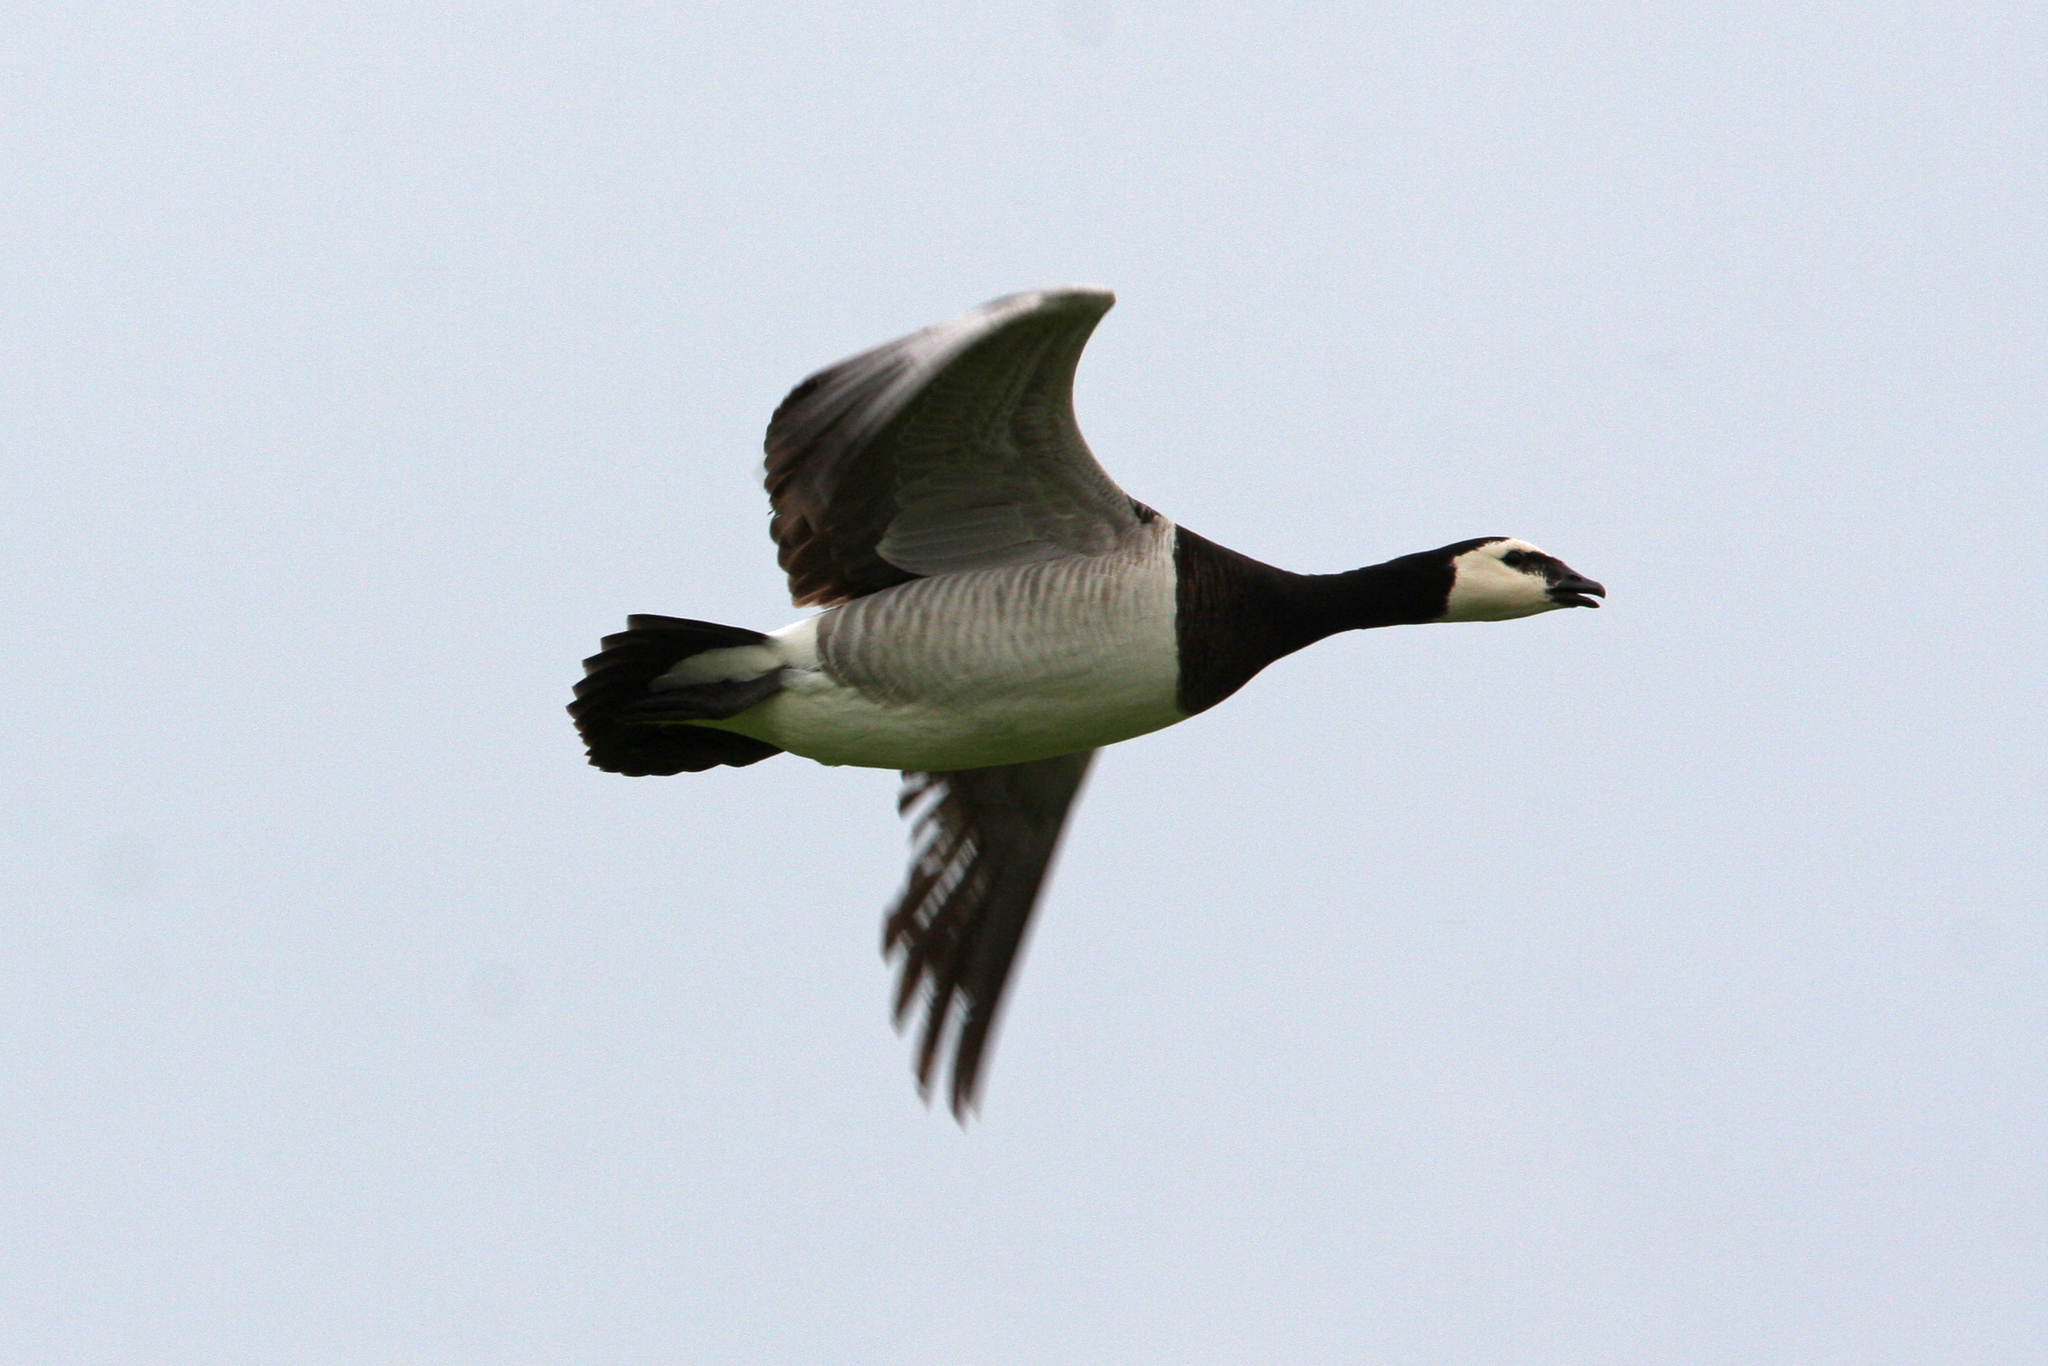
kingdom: Animalia
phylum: Chordata
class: Aves
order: Anseriformes
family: Anatidae
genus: Branta
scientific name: Branta leucopsis
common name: Barnacle goose
